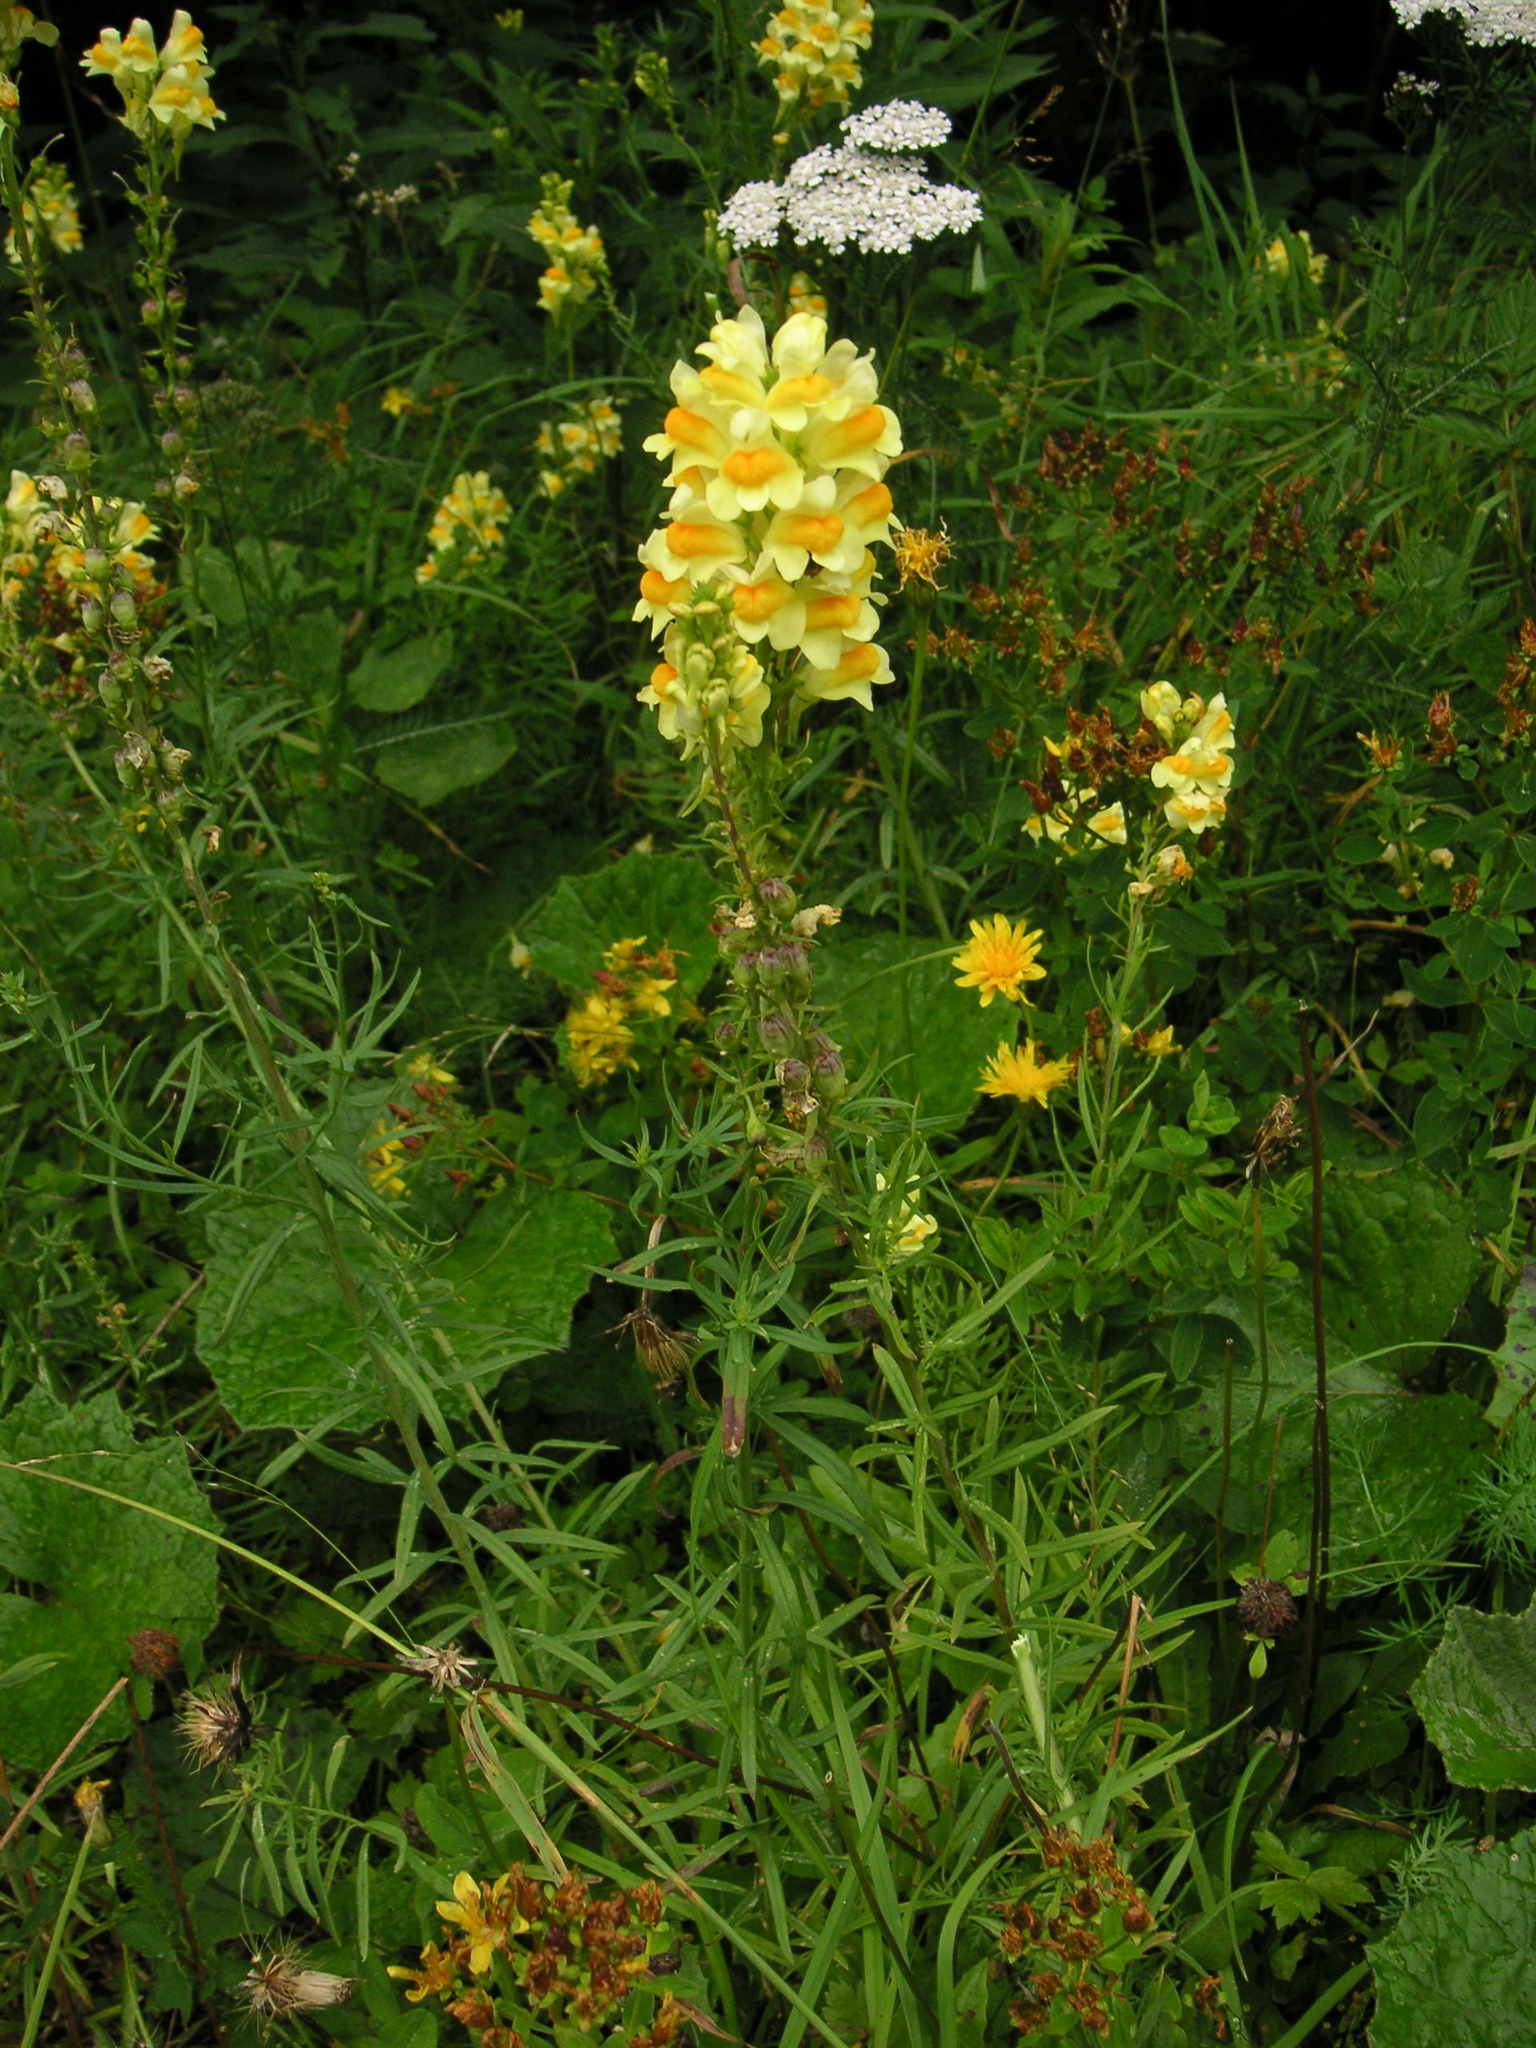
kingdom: Plantae
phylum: Tracheophyta
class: Magnoliopsida
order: Lamiales
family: Plantaginaceae
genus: Linaria
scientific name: Linaria vulgaris
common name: Butter and eggs
